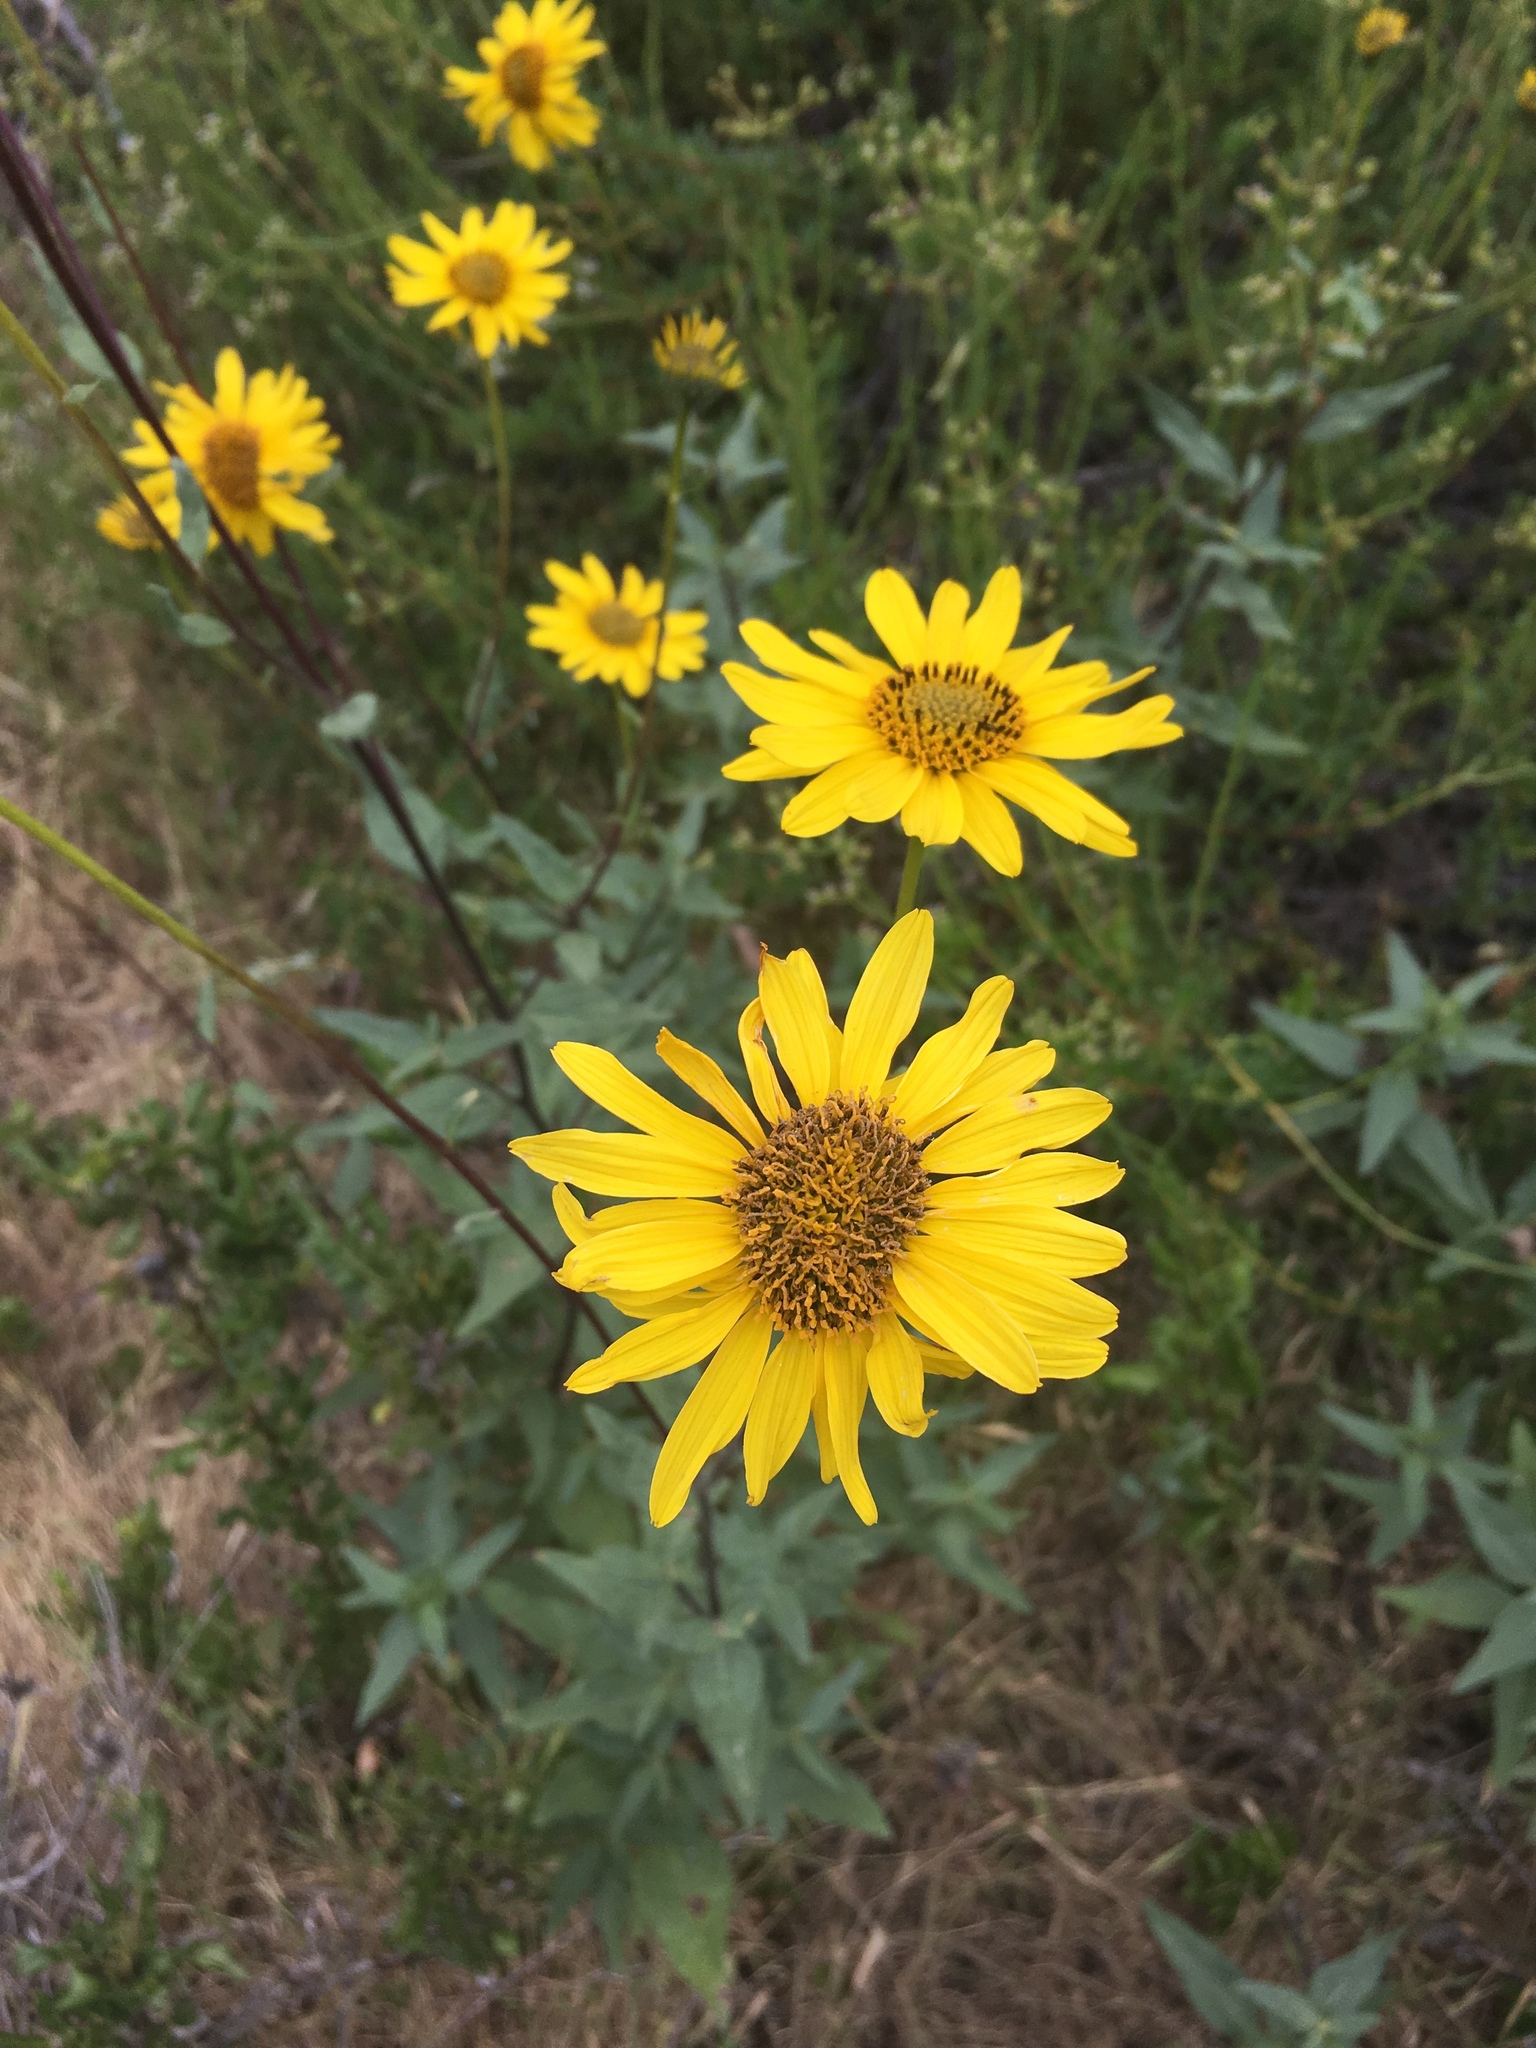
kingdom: Plantae
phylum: Tracheophyta
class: Magnoliopsida
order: Asterales
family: Asteraceae
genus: Helianthus
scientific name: Helianthus gracilentus
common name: Slender sunflower
